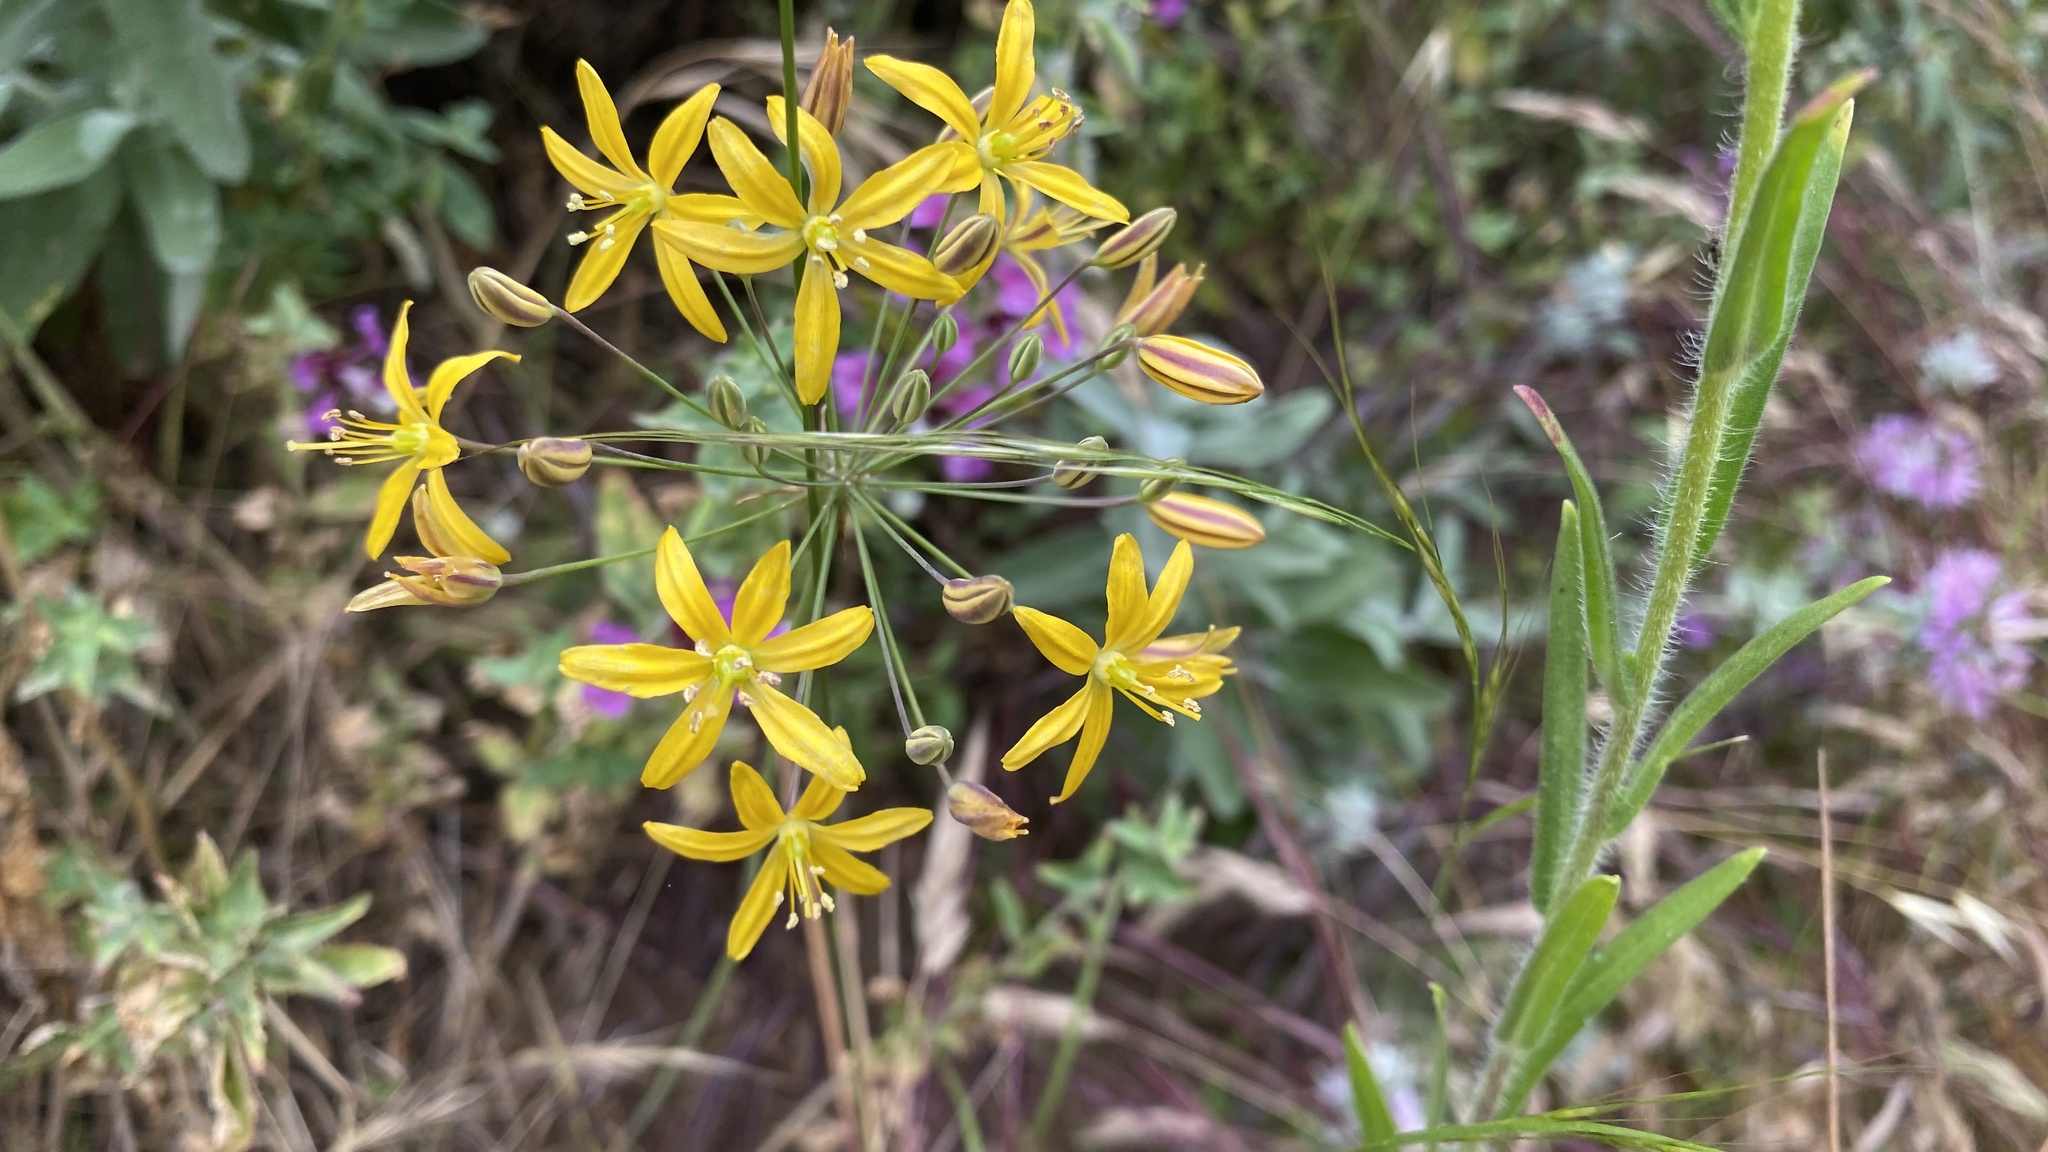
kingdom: Plantae
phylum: Tracheophyta
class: Liliopsida
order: Asparagales
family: Asparagaceae
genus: Bloomeria
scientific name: Bloomeria crocea
